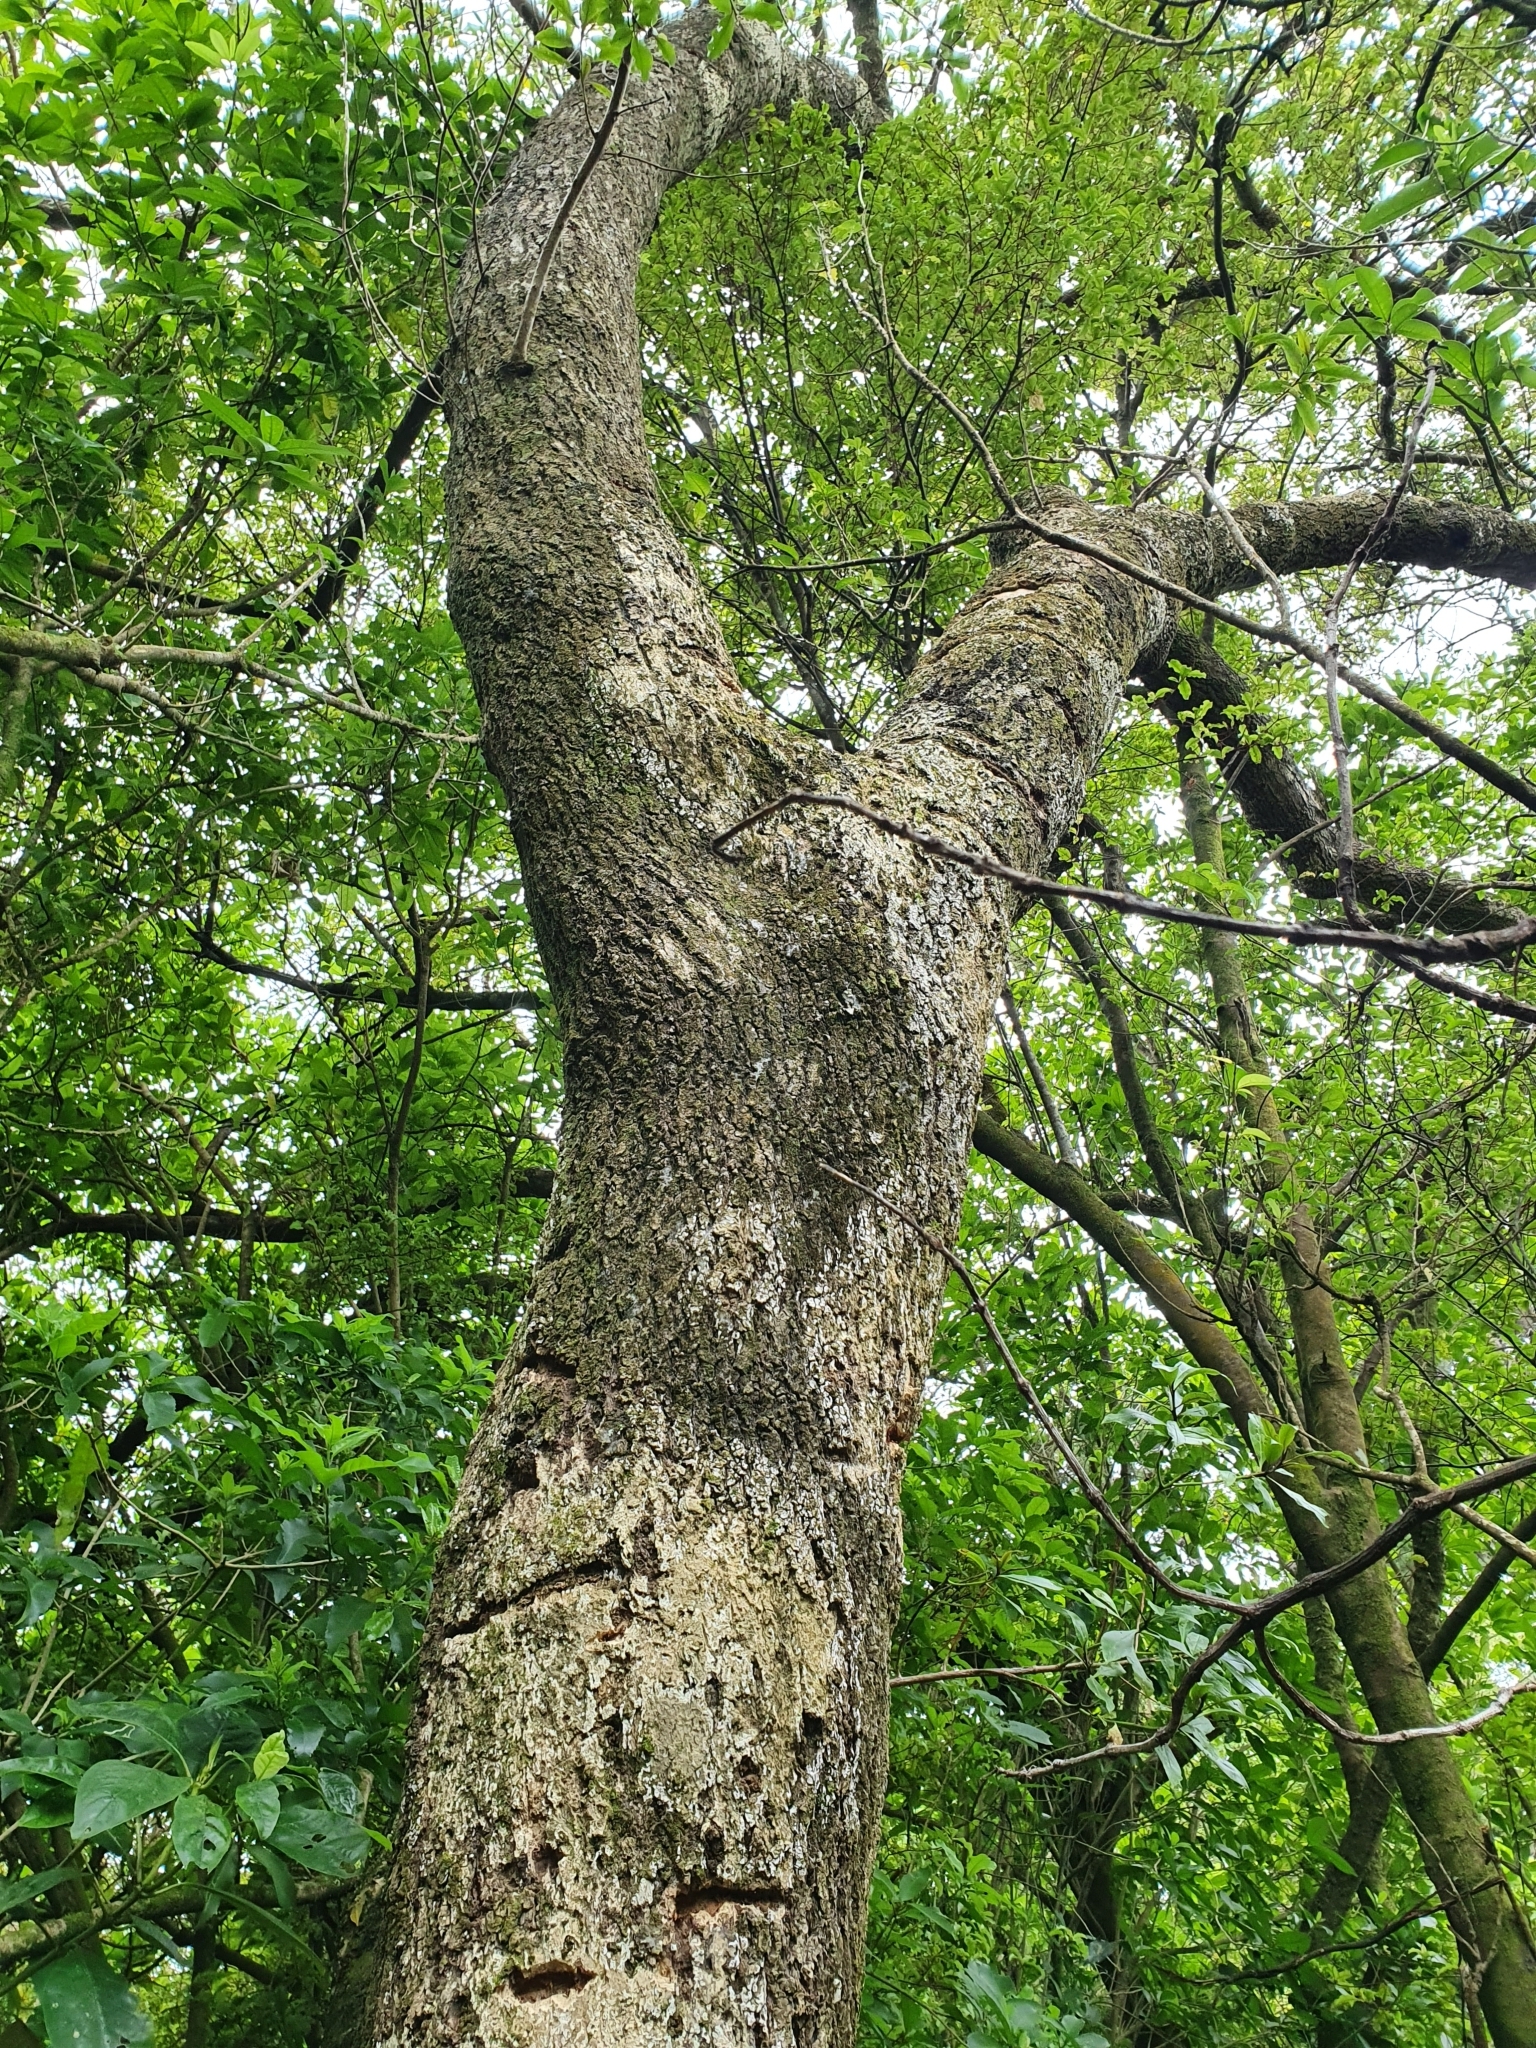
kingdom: Plantae
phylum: Tracheophyta
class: Magnoliopsida
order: Lamiales
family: Scrophulariaceae
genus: Myoporum
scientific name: Myoporum laetum
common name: Ngaio tree
